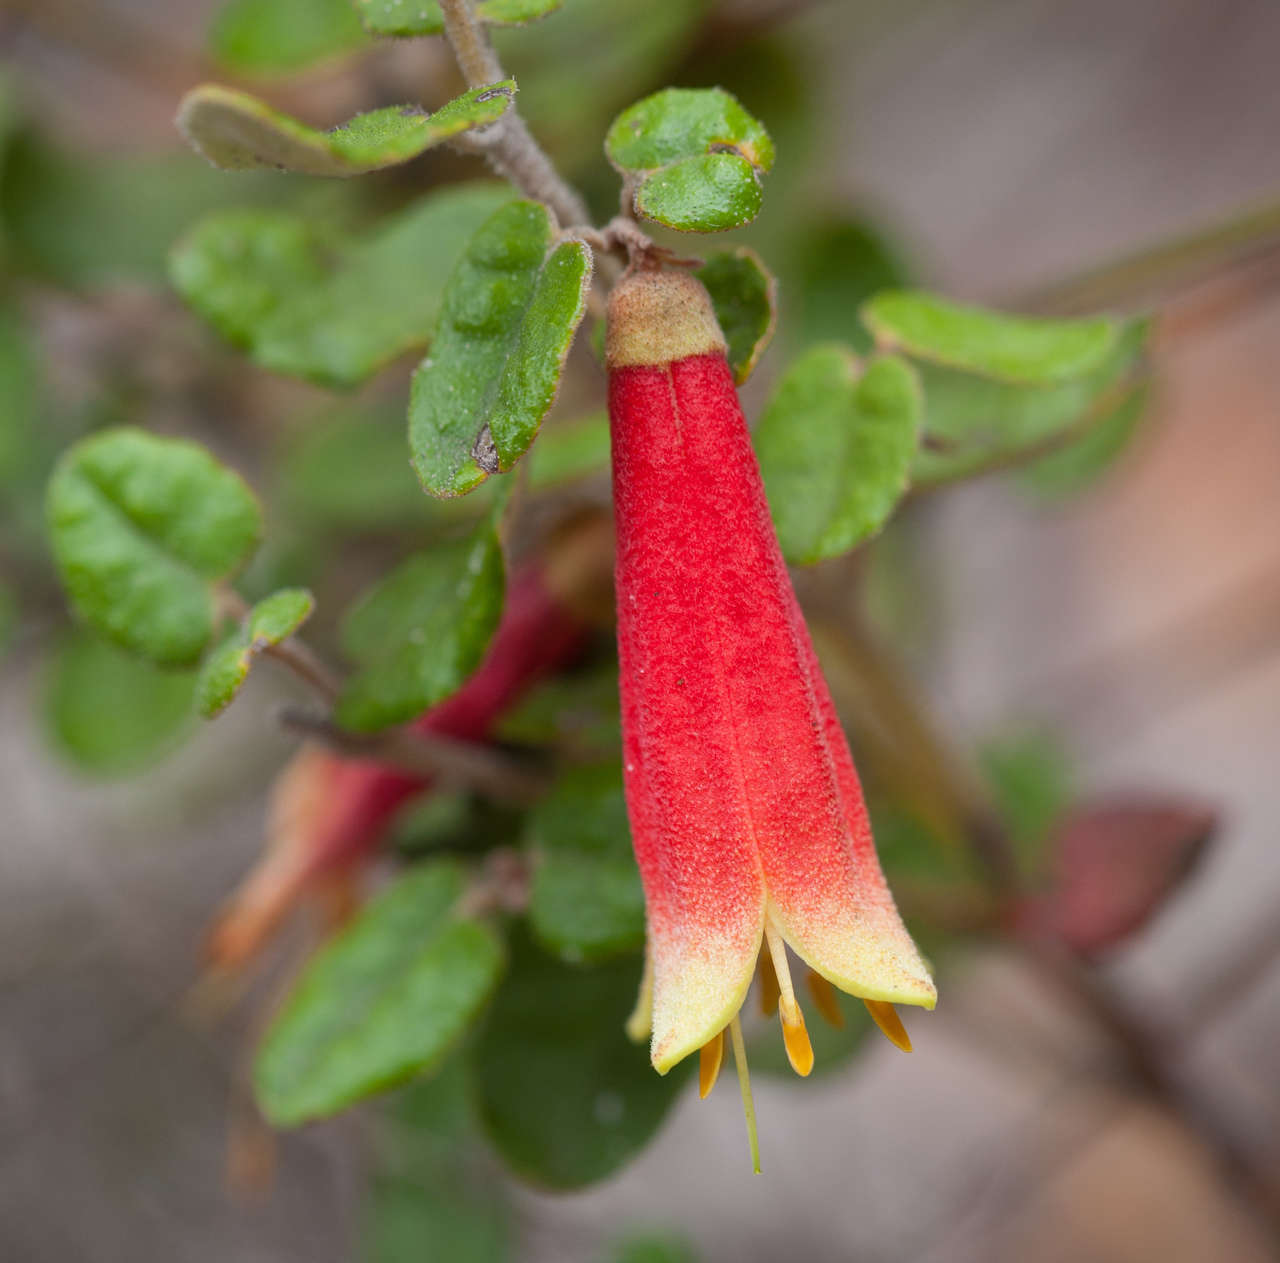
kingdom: Plantae
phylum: Tracheophyta
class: Magnoliopsida
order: Sapindales
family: Rutaceae
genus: Correa
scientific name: Correa reflexa
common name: Common correa
